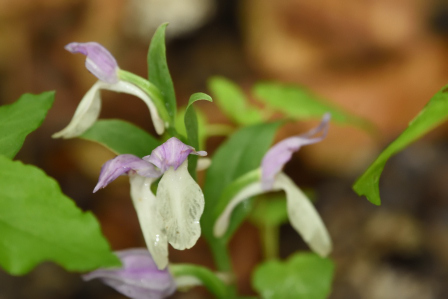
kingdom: Plantae
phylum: Tracheophyta
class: Liliopsida
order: Asparagales
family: Orchidaceae
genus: Galearis
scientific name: Galearis spectabilis
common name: Purple-hooded orchis
